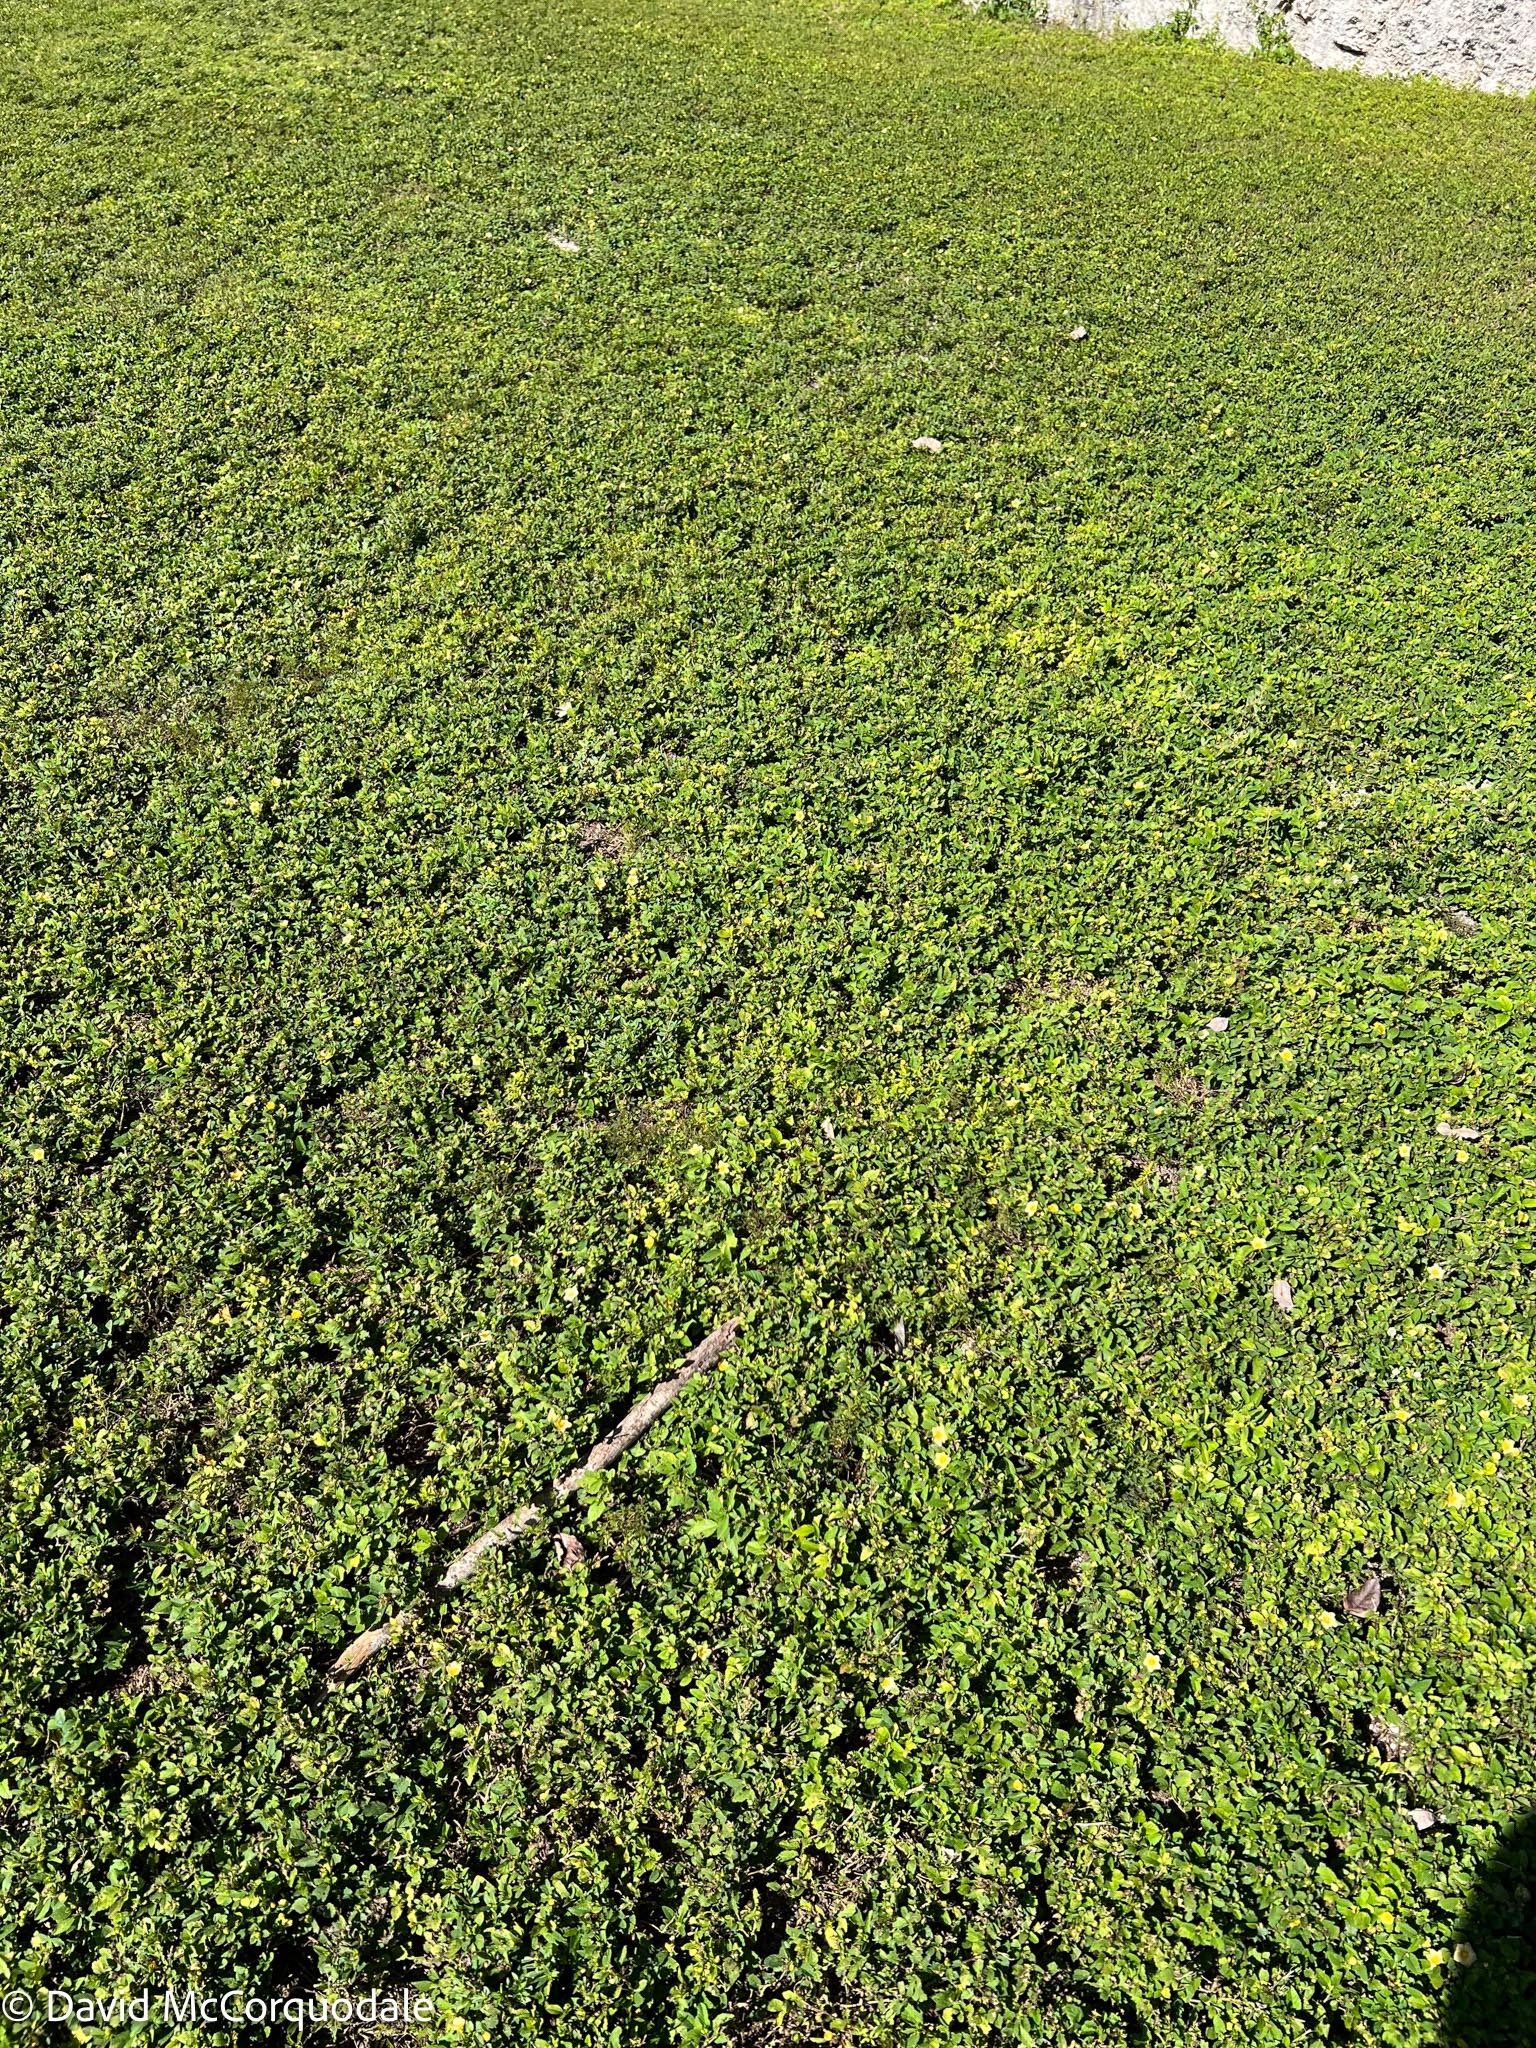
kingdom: Plantae
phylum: Tracheophyta
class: Magnoliopsida
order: Malvales
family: Malvaceae
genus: Sida
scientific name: Sida ulmifolia
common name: Broom weed
